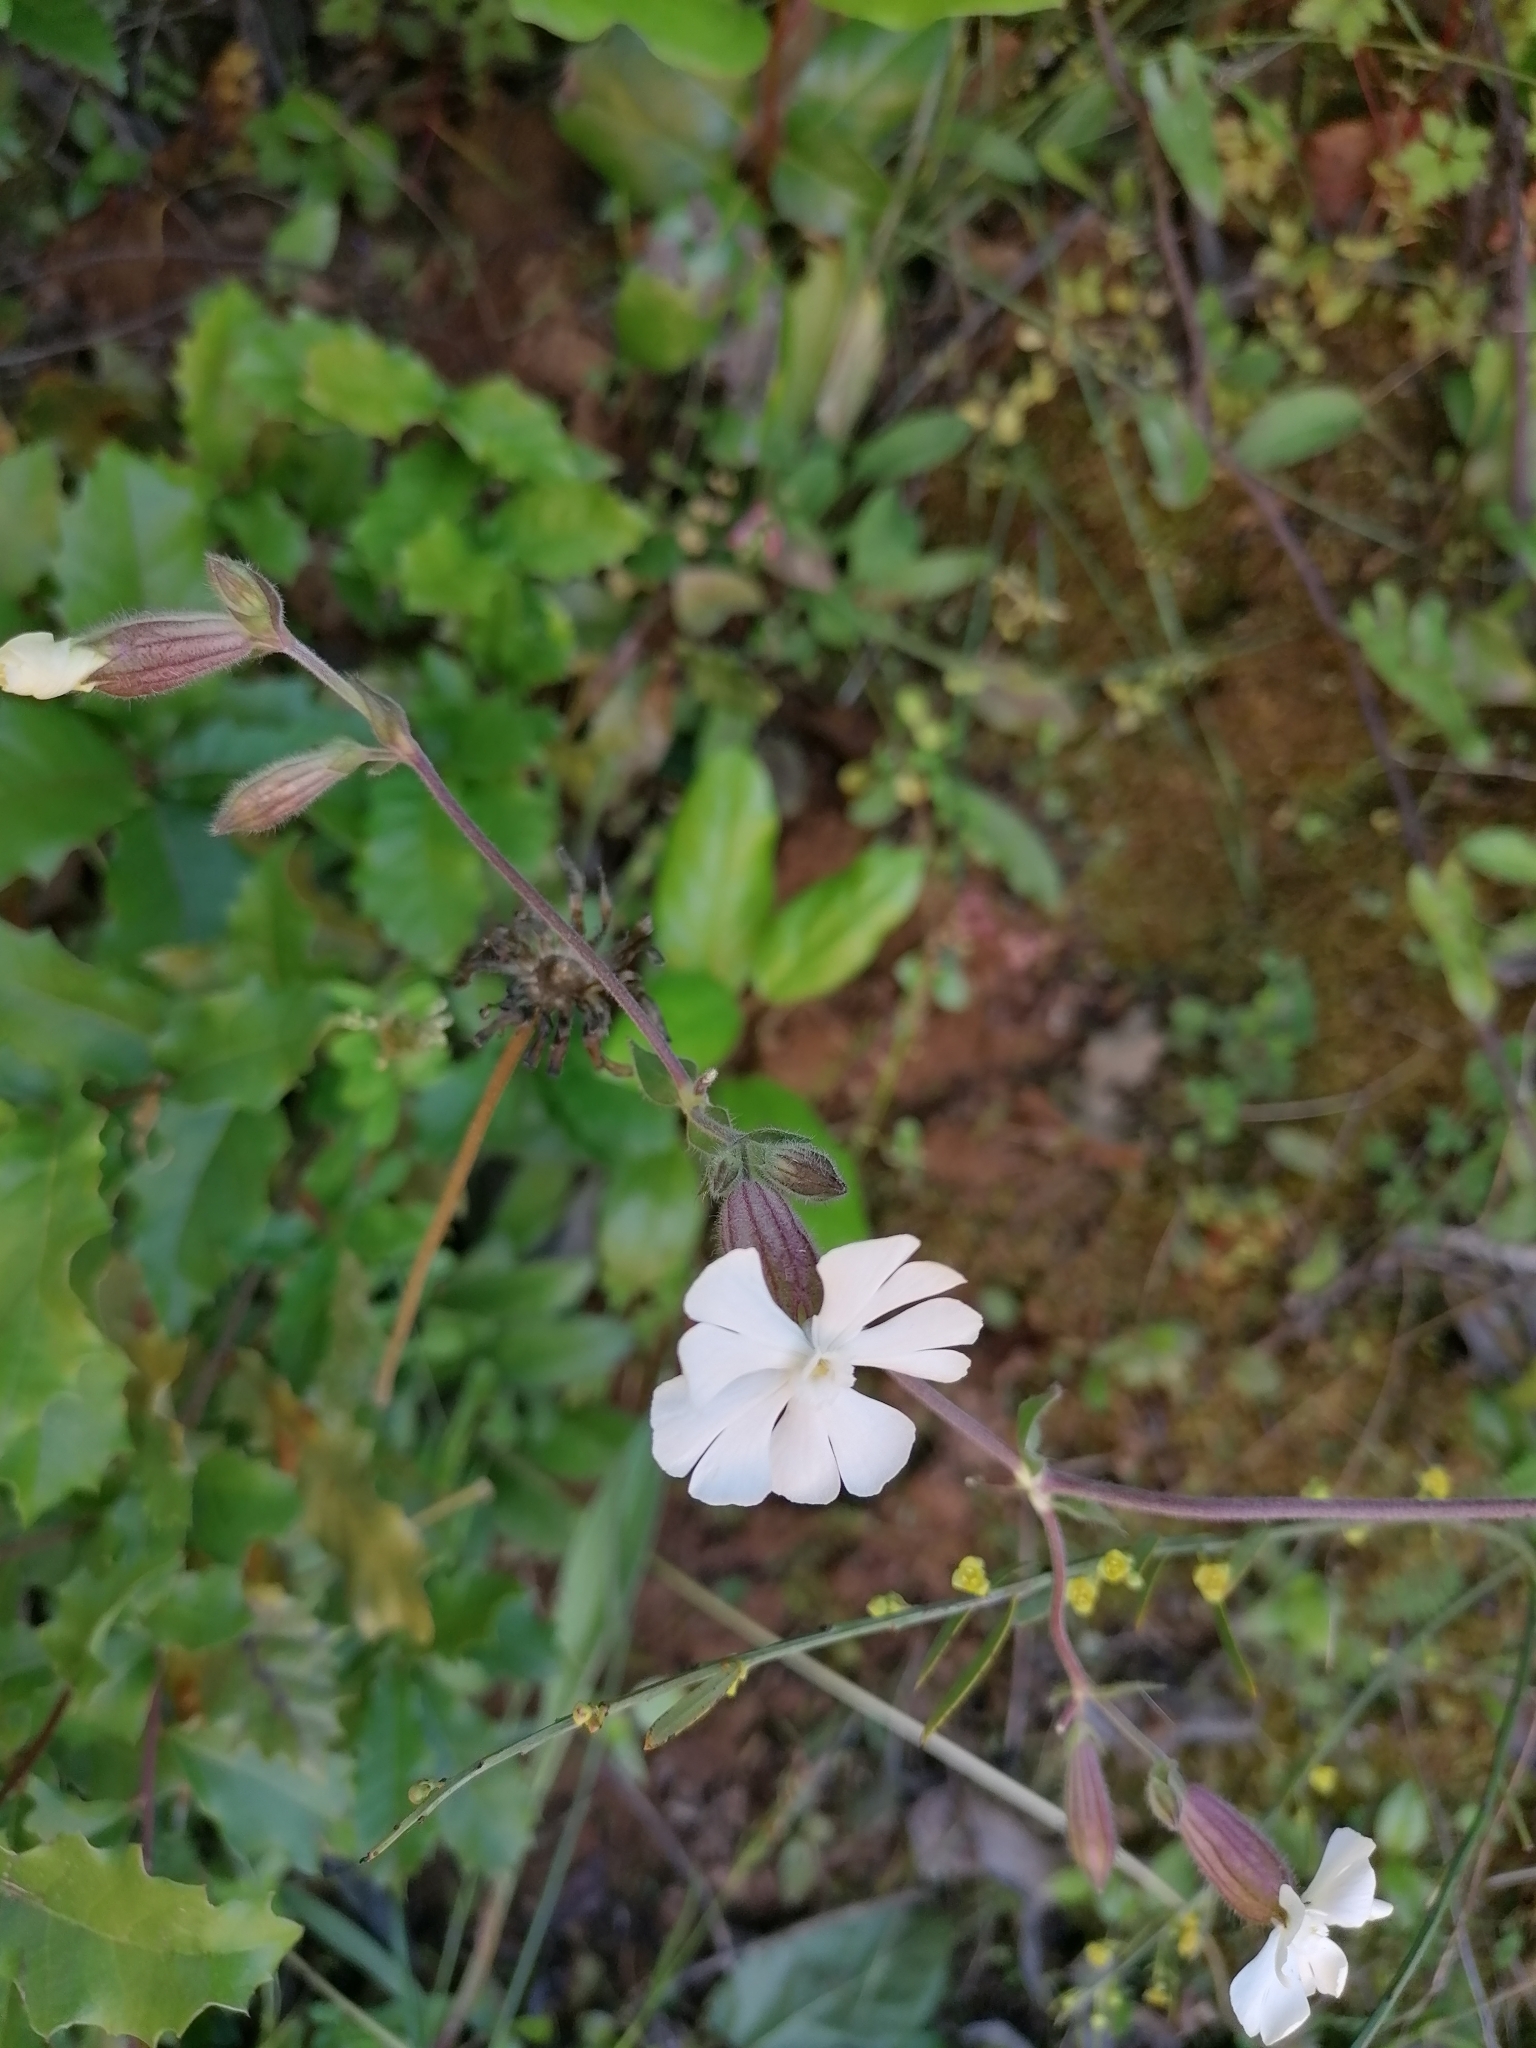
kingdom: Plantae
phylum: Tracheophyta
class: Magnoliopsida
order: Caryophyllales
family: Caryophyllaceae
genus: Silene
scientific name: Silene latifolia
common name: White campion
